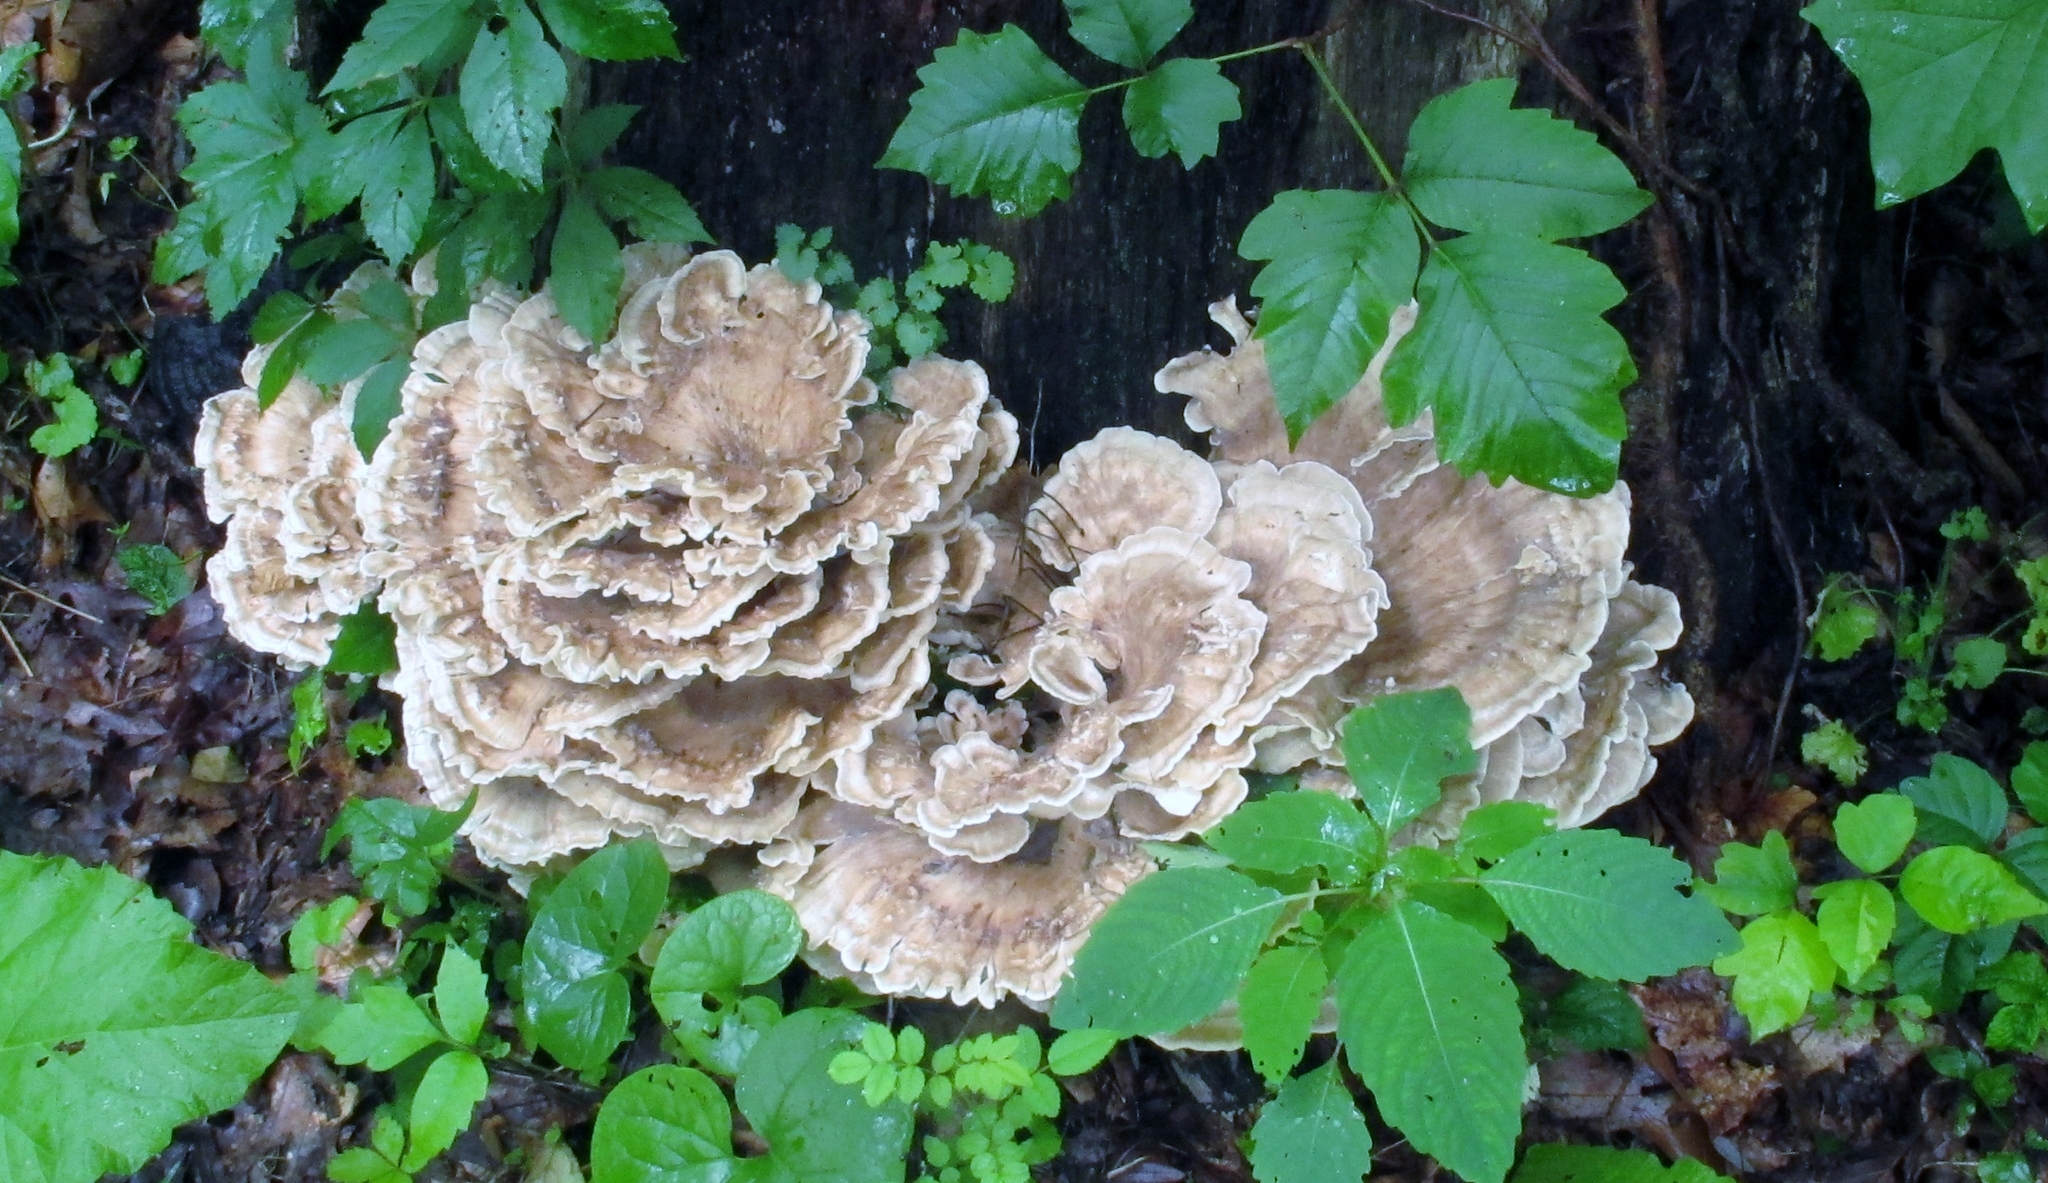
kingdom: Fungi
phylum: Basidiomycota
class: Agaricomycetes
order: Polyporales
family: Meripilaceae
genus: Meripilus
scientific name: Meripilus sumstinei
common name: Black-staining polypore
